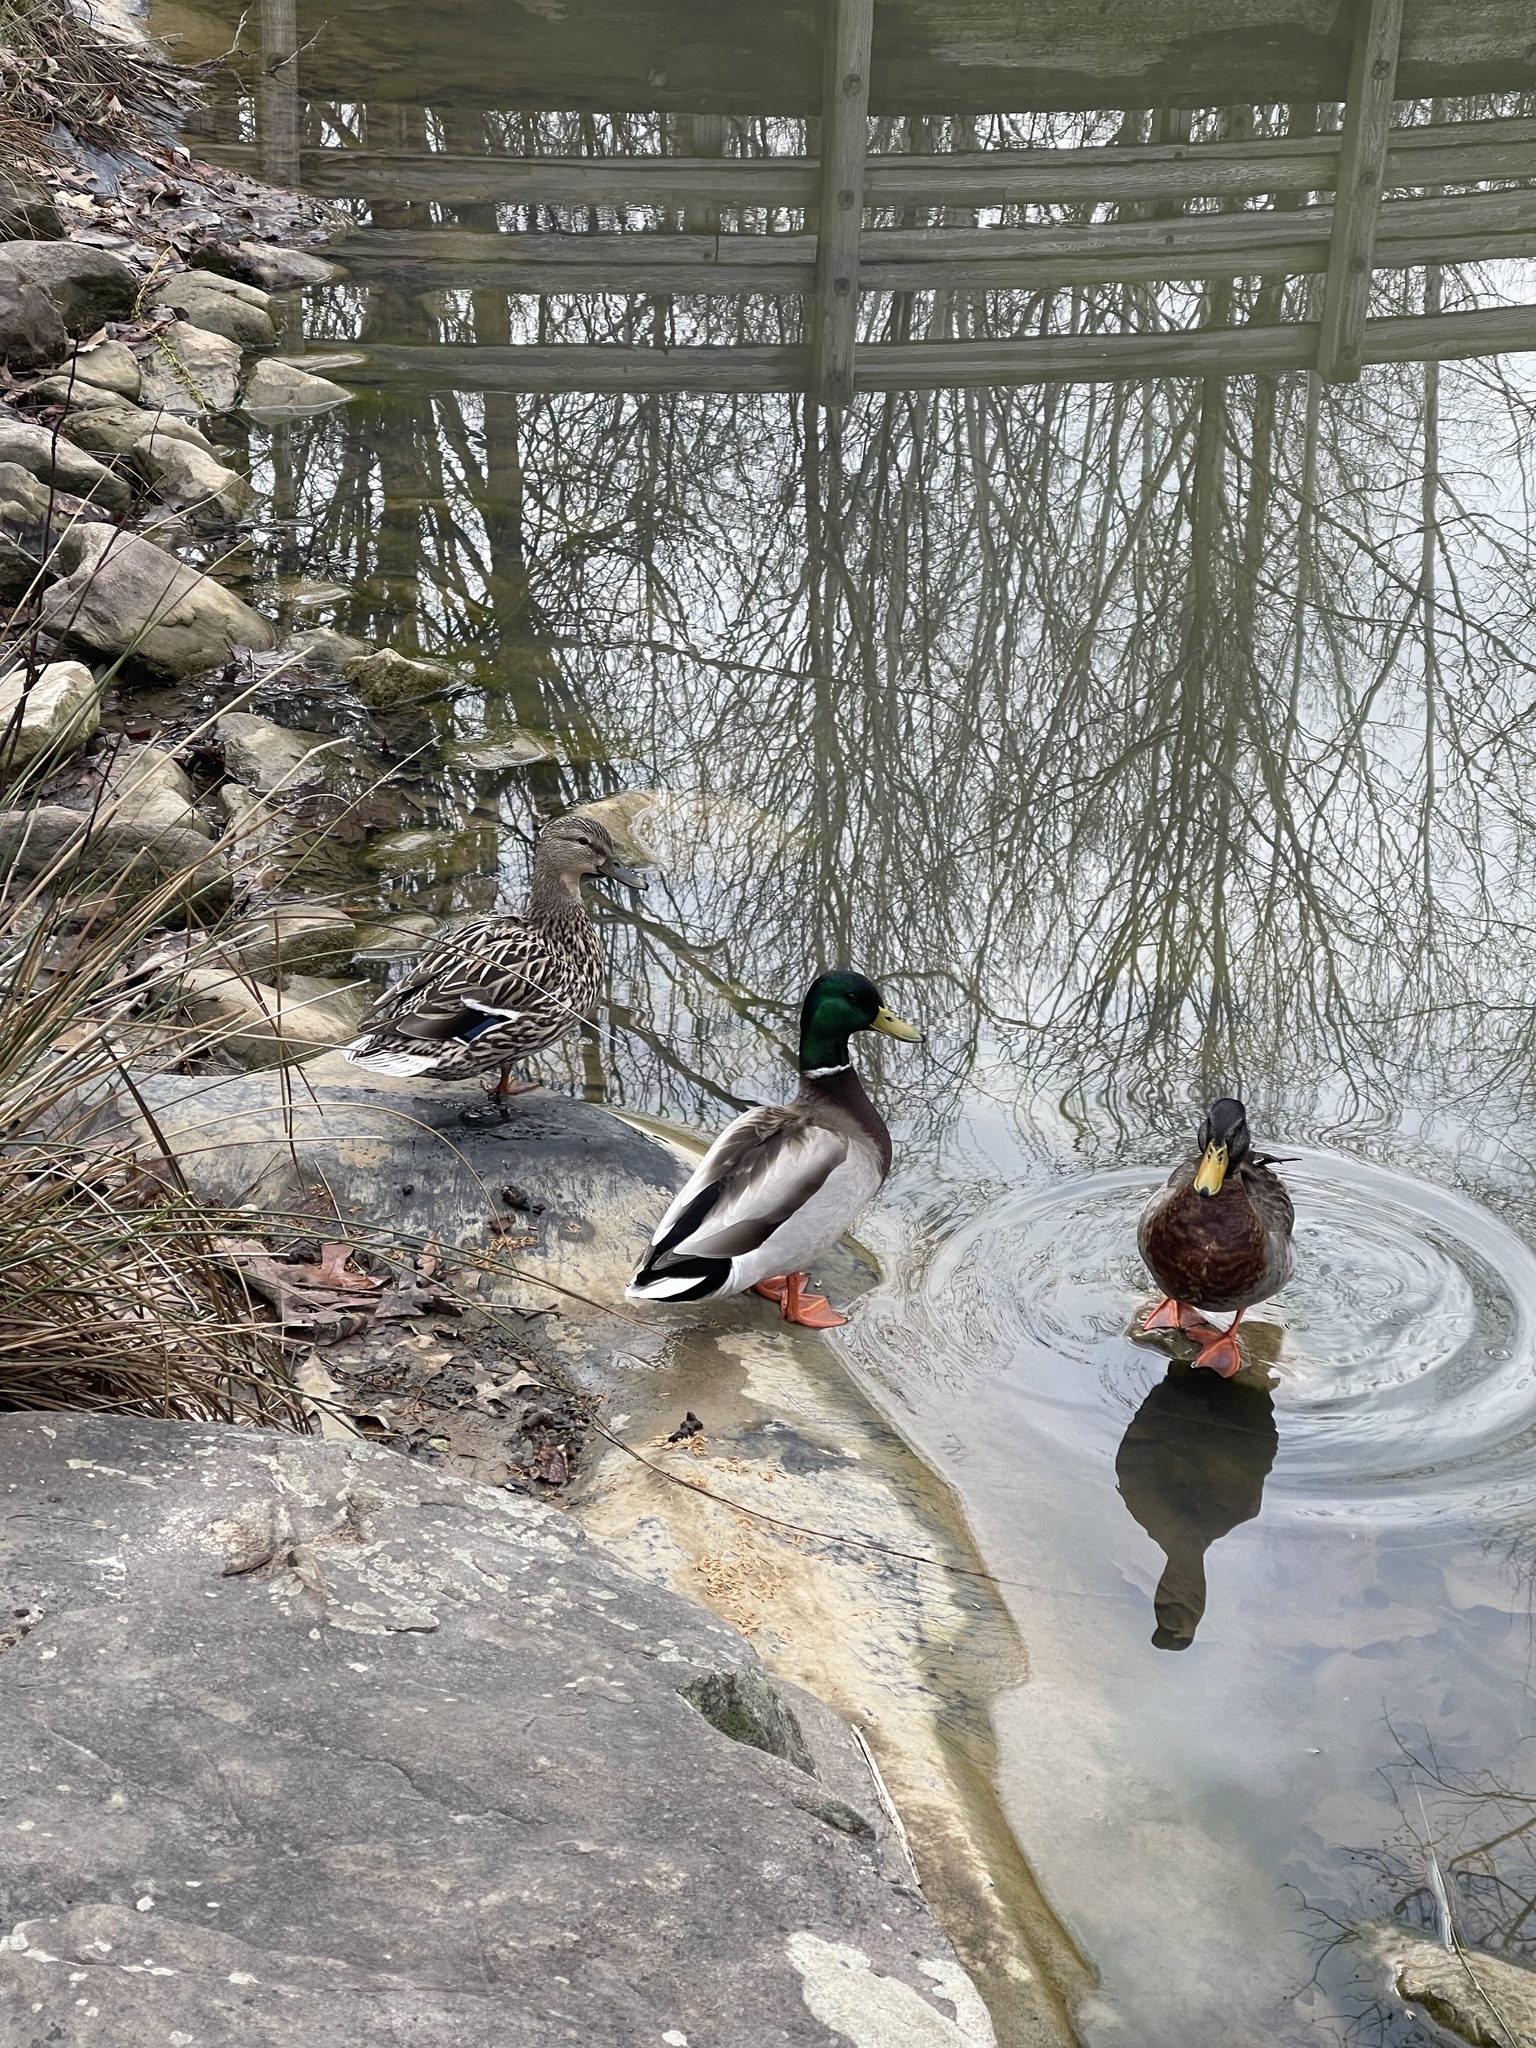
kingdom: Animalia
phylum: Chordata
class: Aves
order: Anseriformes
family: Anatidae
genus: Anas
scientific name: Anas platyrhynchos
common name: Mallard
